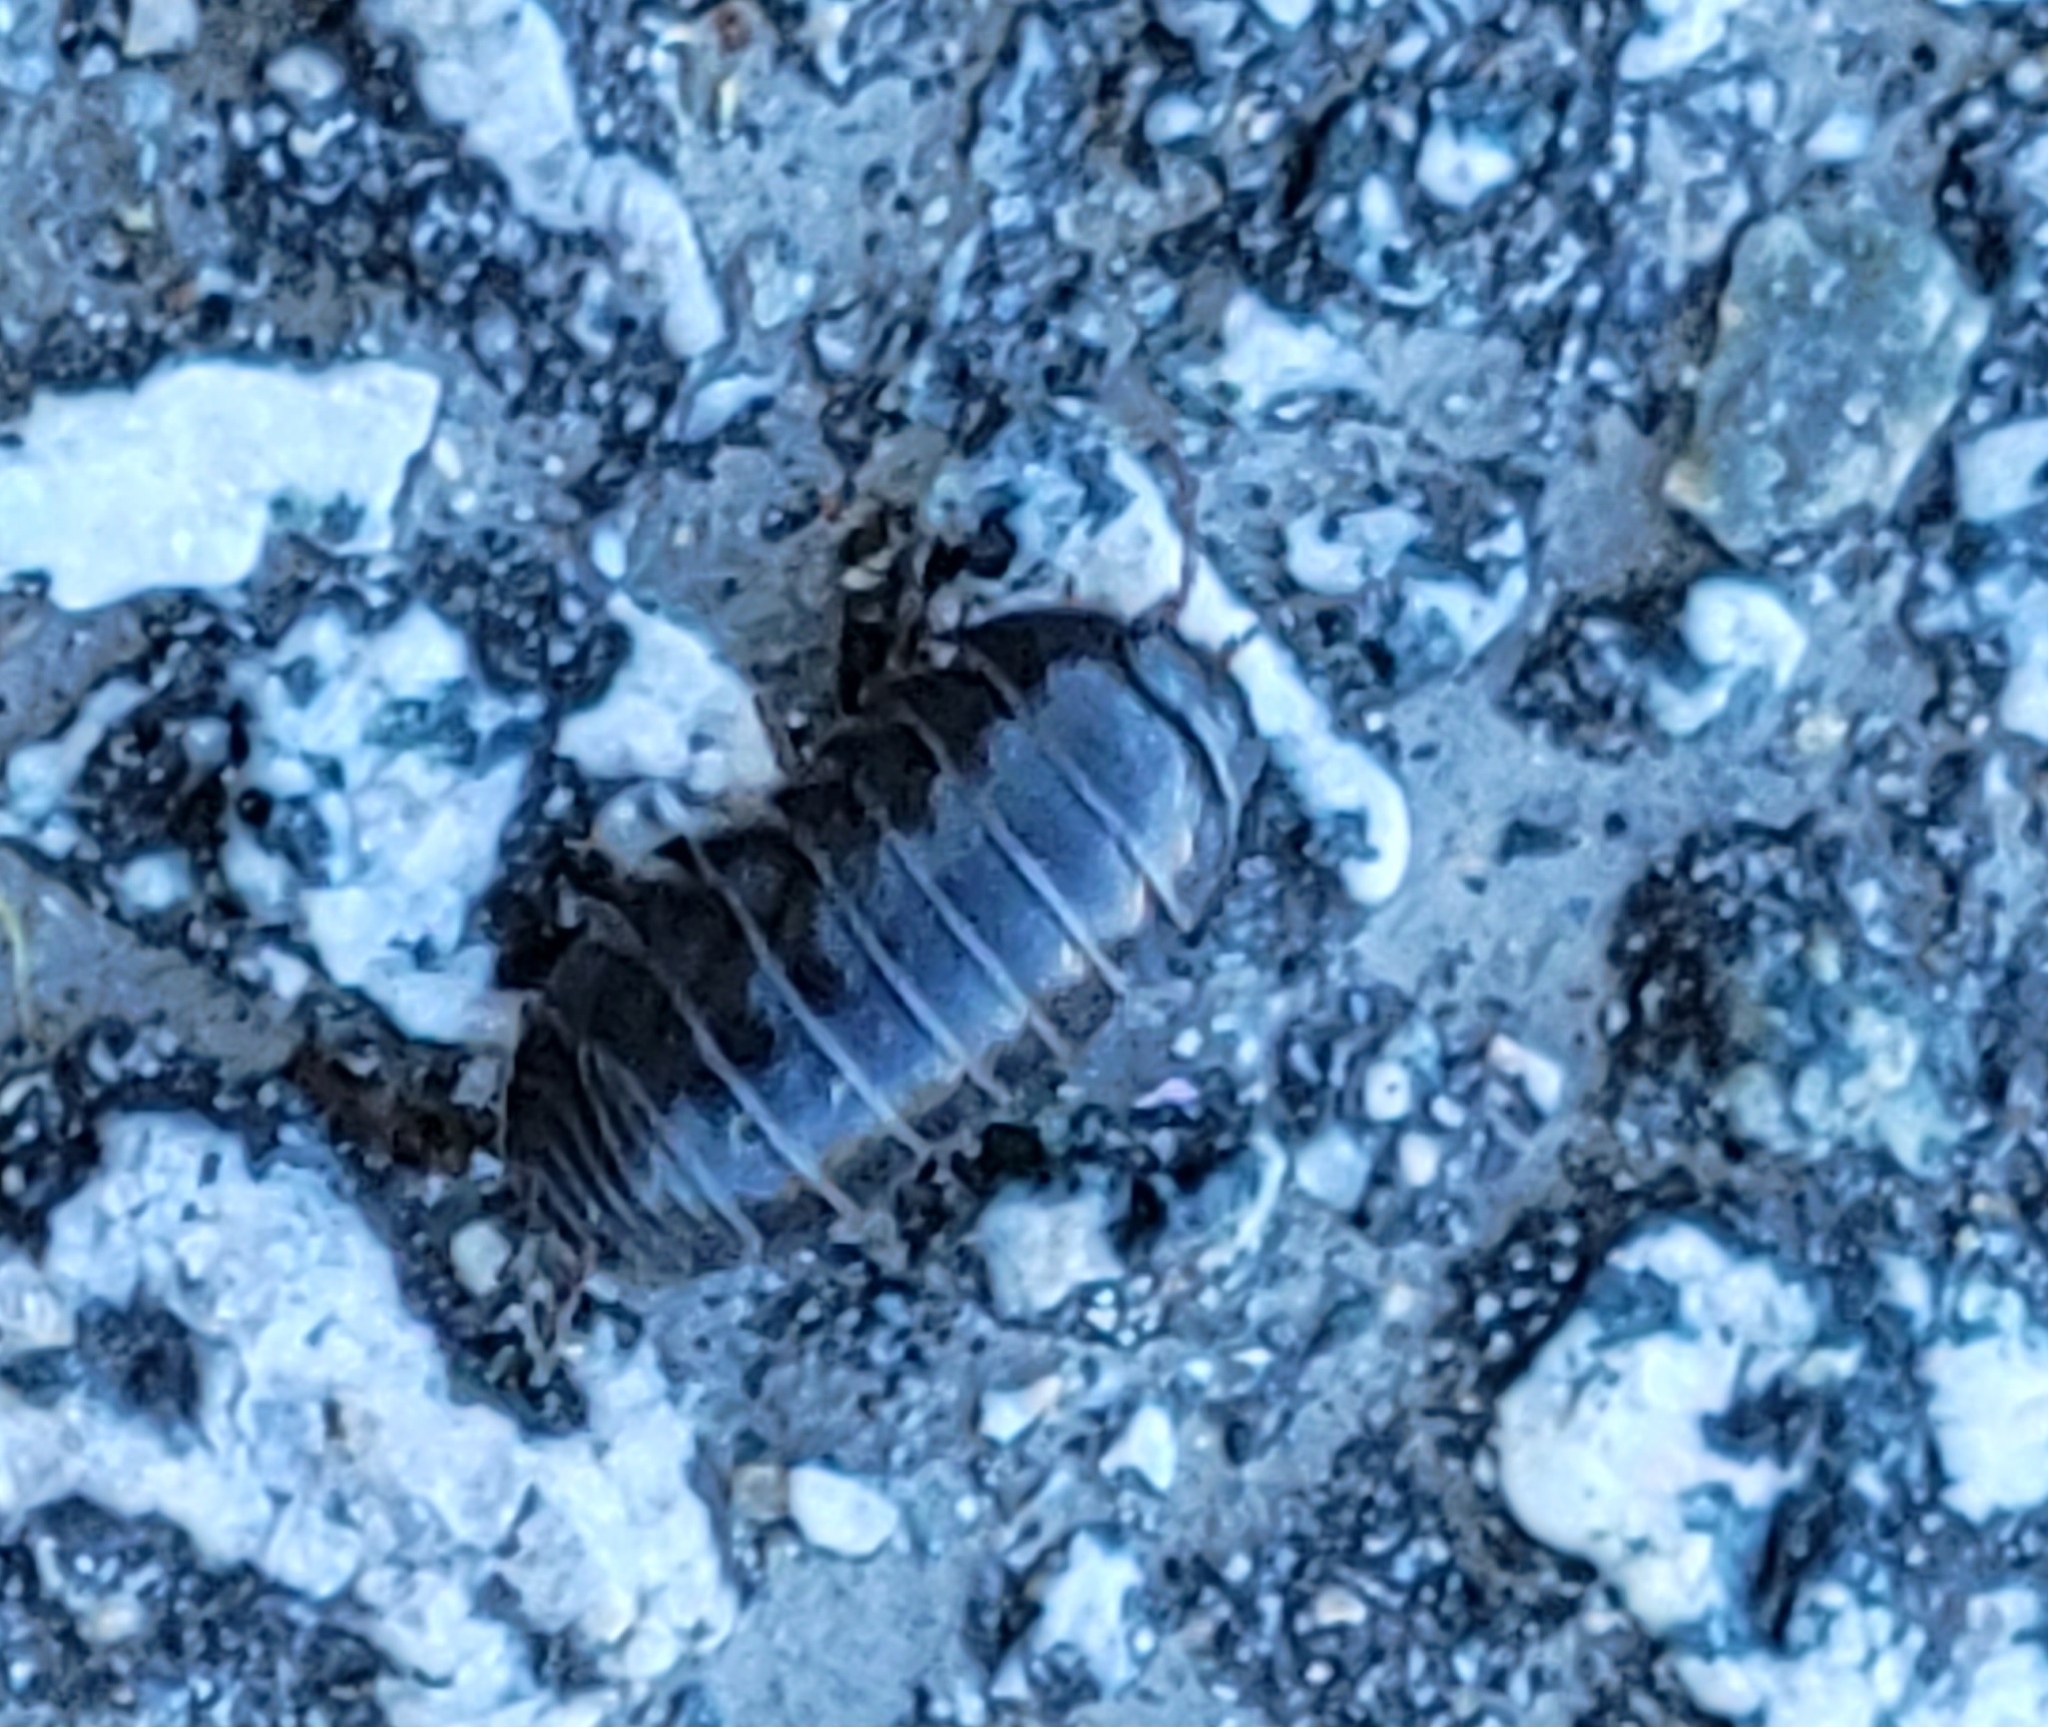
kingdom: Animalia
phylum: Arthropoda
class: Malacostraca
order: Isopoda
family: Armadillidiidae
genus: Armadillidium
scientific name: Armadillidium vulgare
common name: Common pill woodlouse
